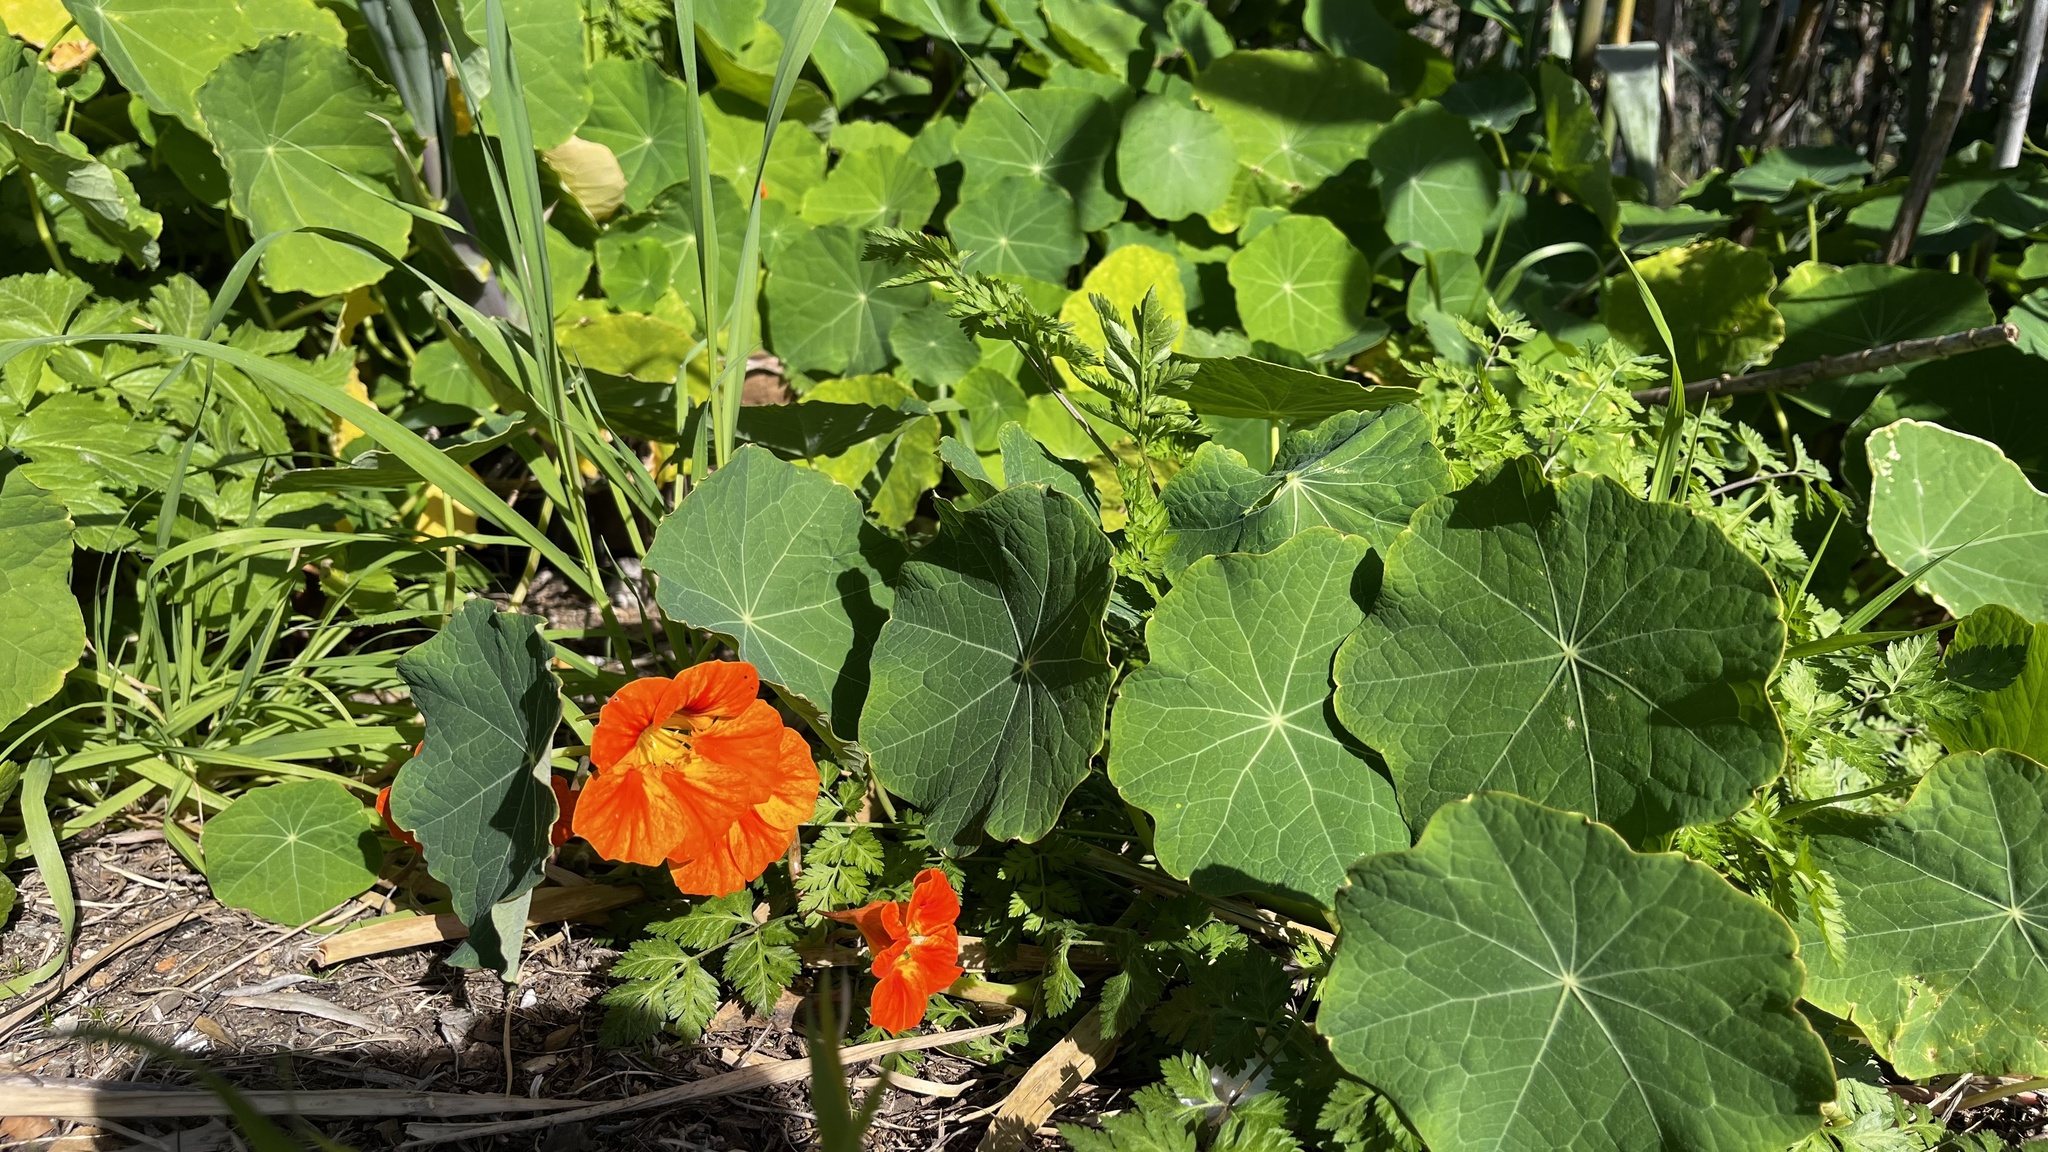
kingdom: Plantae
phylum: Tracheophyta
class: Magnoliopsida
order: Brassicales
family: Tropaeolaceae
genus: Tropaeolum
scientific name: Tropaeolum majus
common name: Nasturtium
